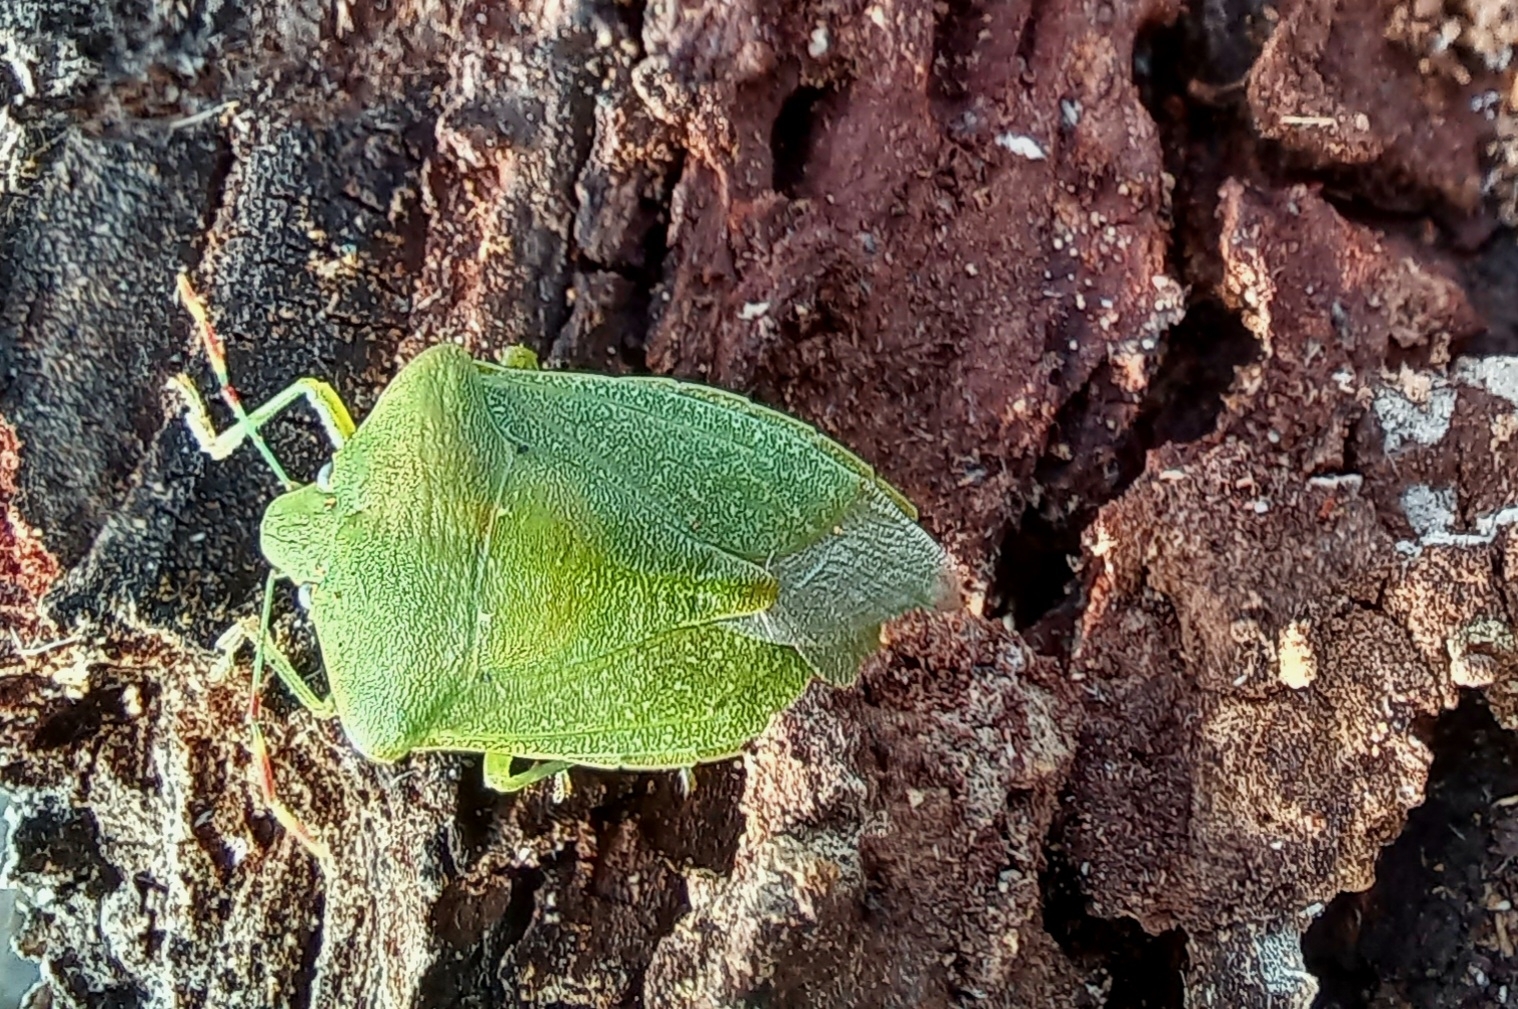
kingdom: Animalia
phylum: Arthropoda
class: Insecta
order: Hemiptera
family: Pentatomidae
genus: Nezara
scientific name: Nezara viridula
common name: Southern green stink bug
